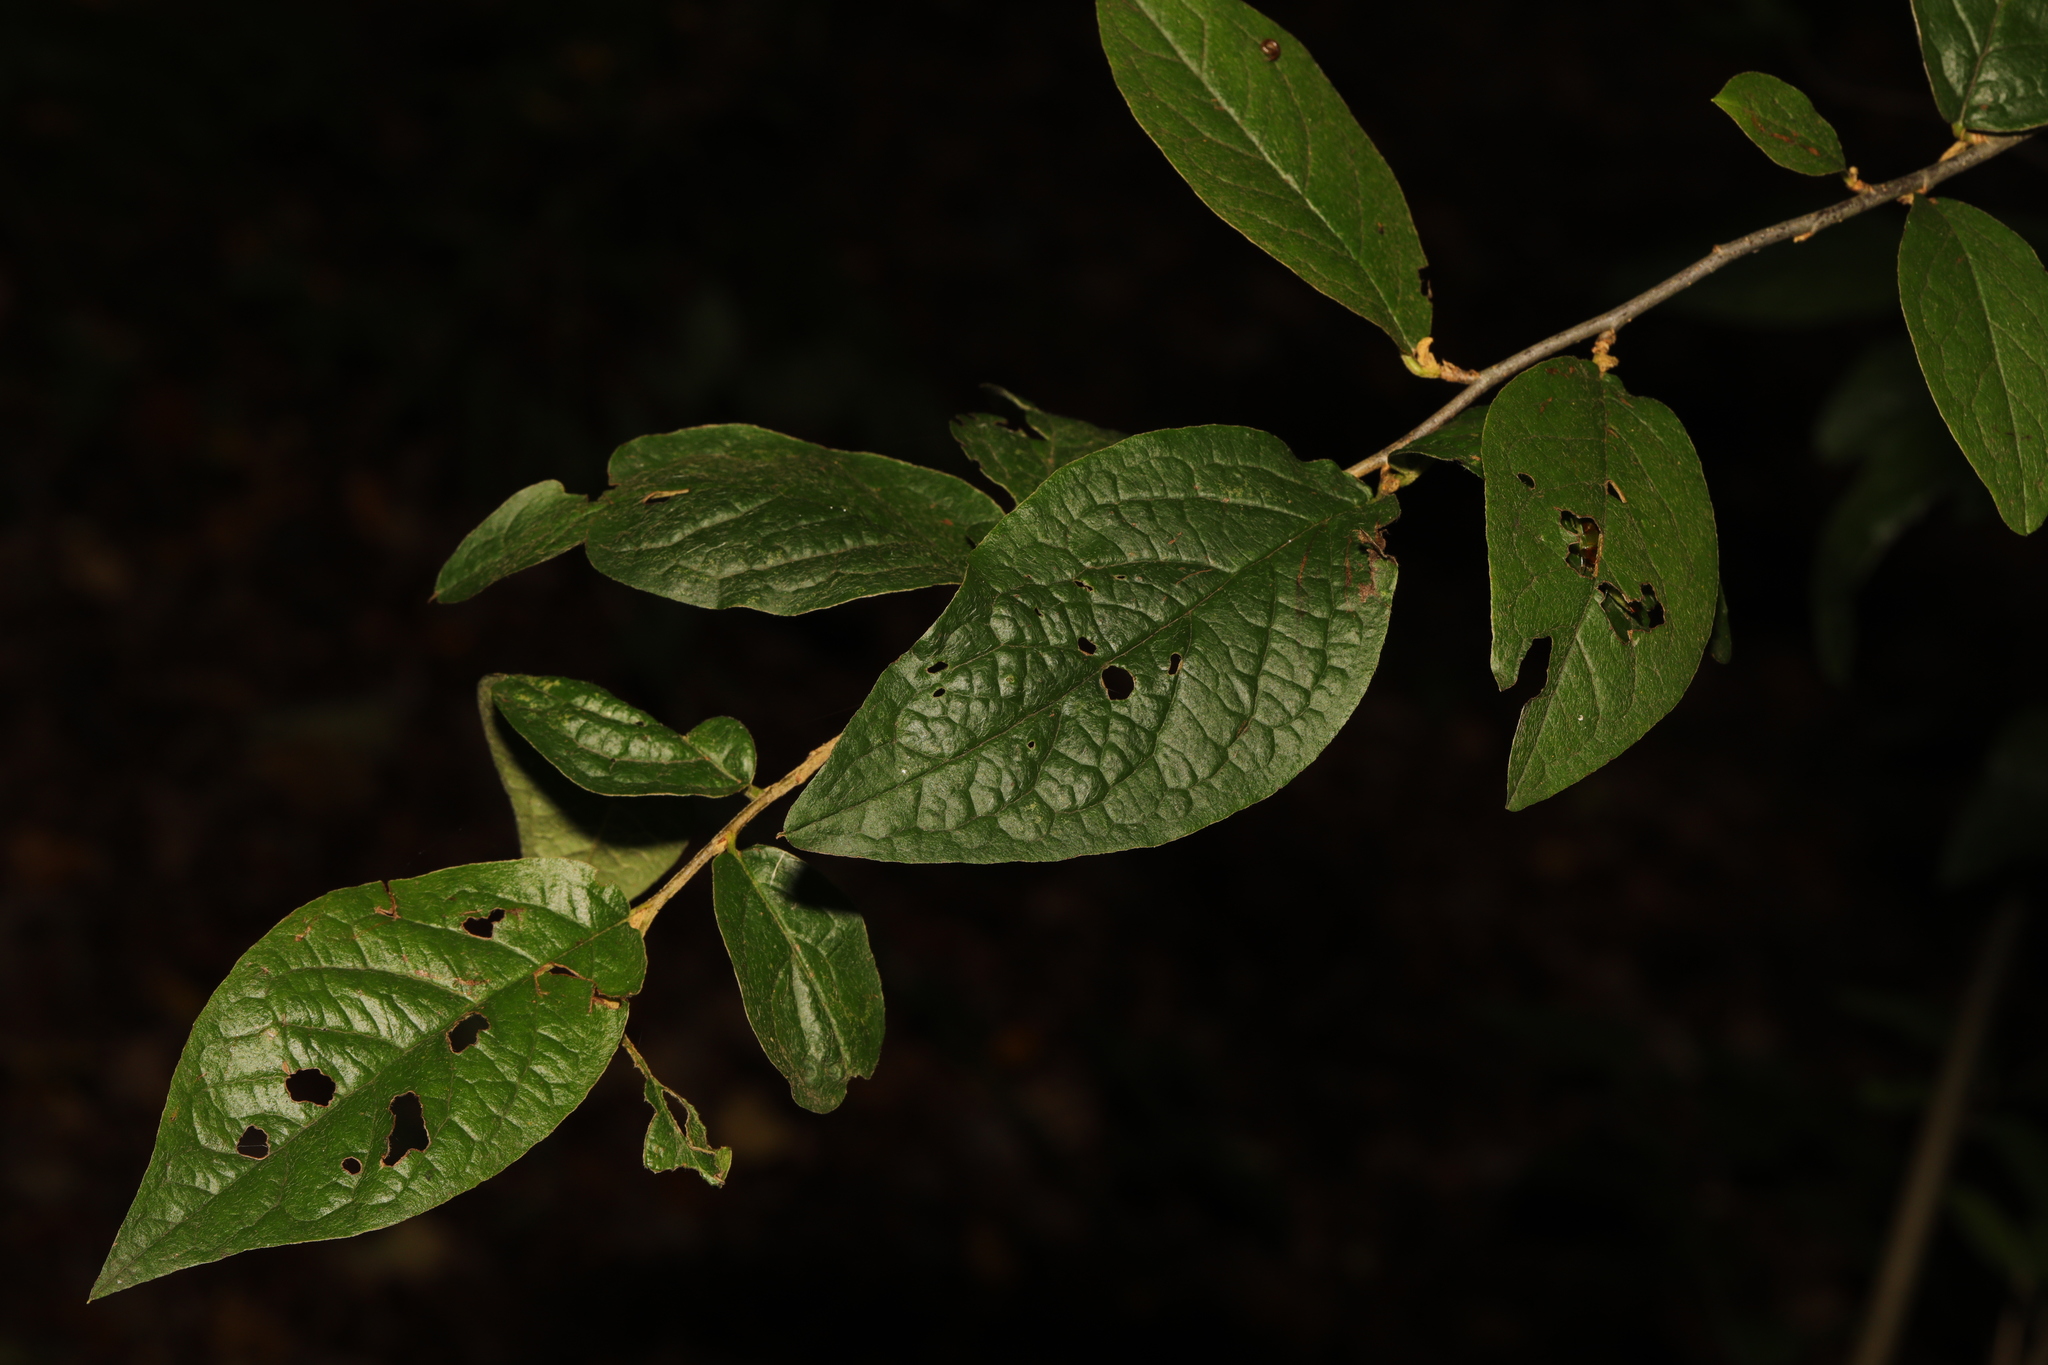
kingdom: Plantae
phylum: Tracheophyta
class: Magnoliopsida
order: Rosales
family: Rosaceae
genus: Cotoneaster
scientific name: Cotoneaster bullatus
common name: Hollyberry cotoneaster
